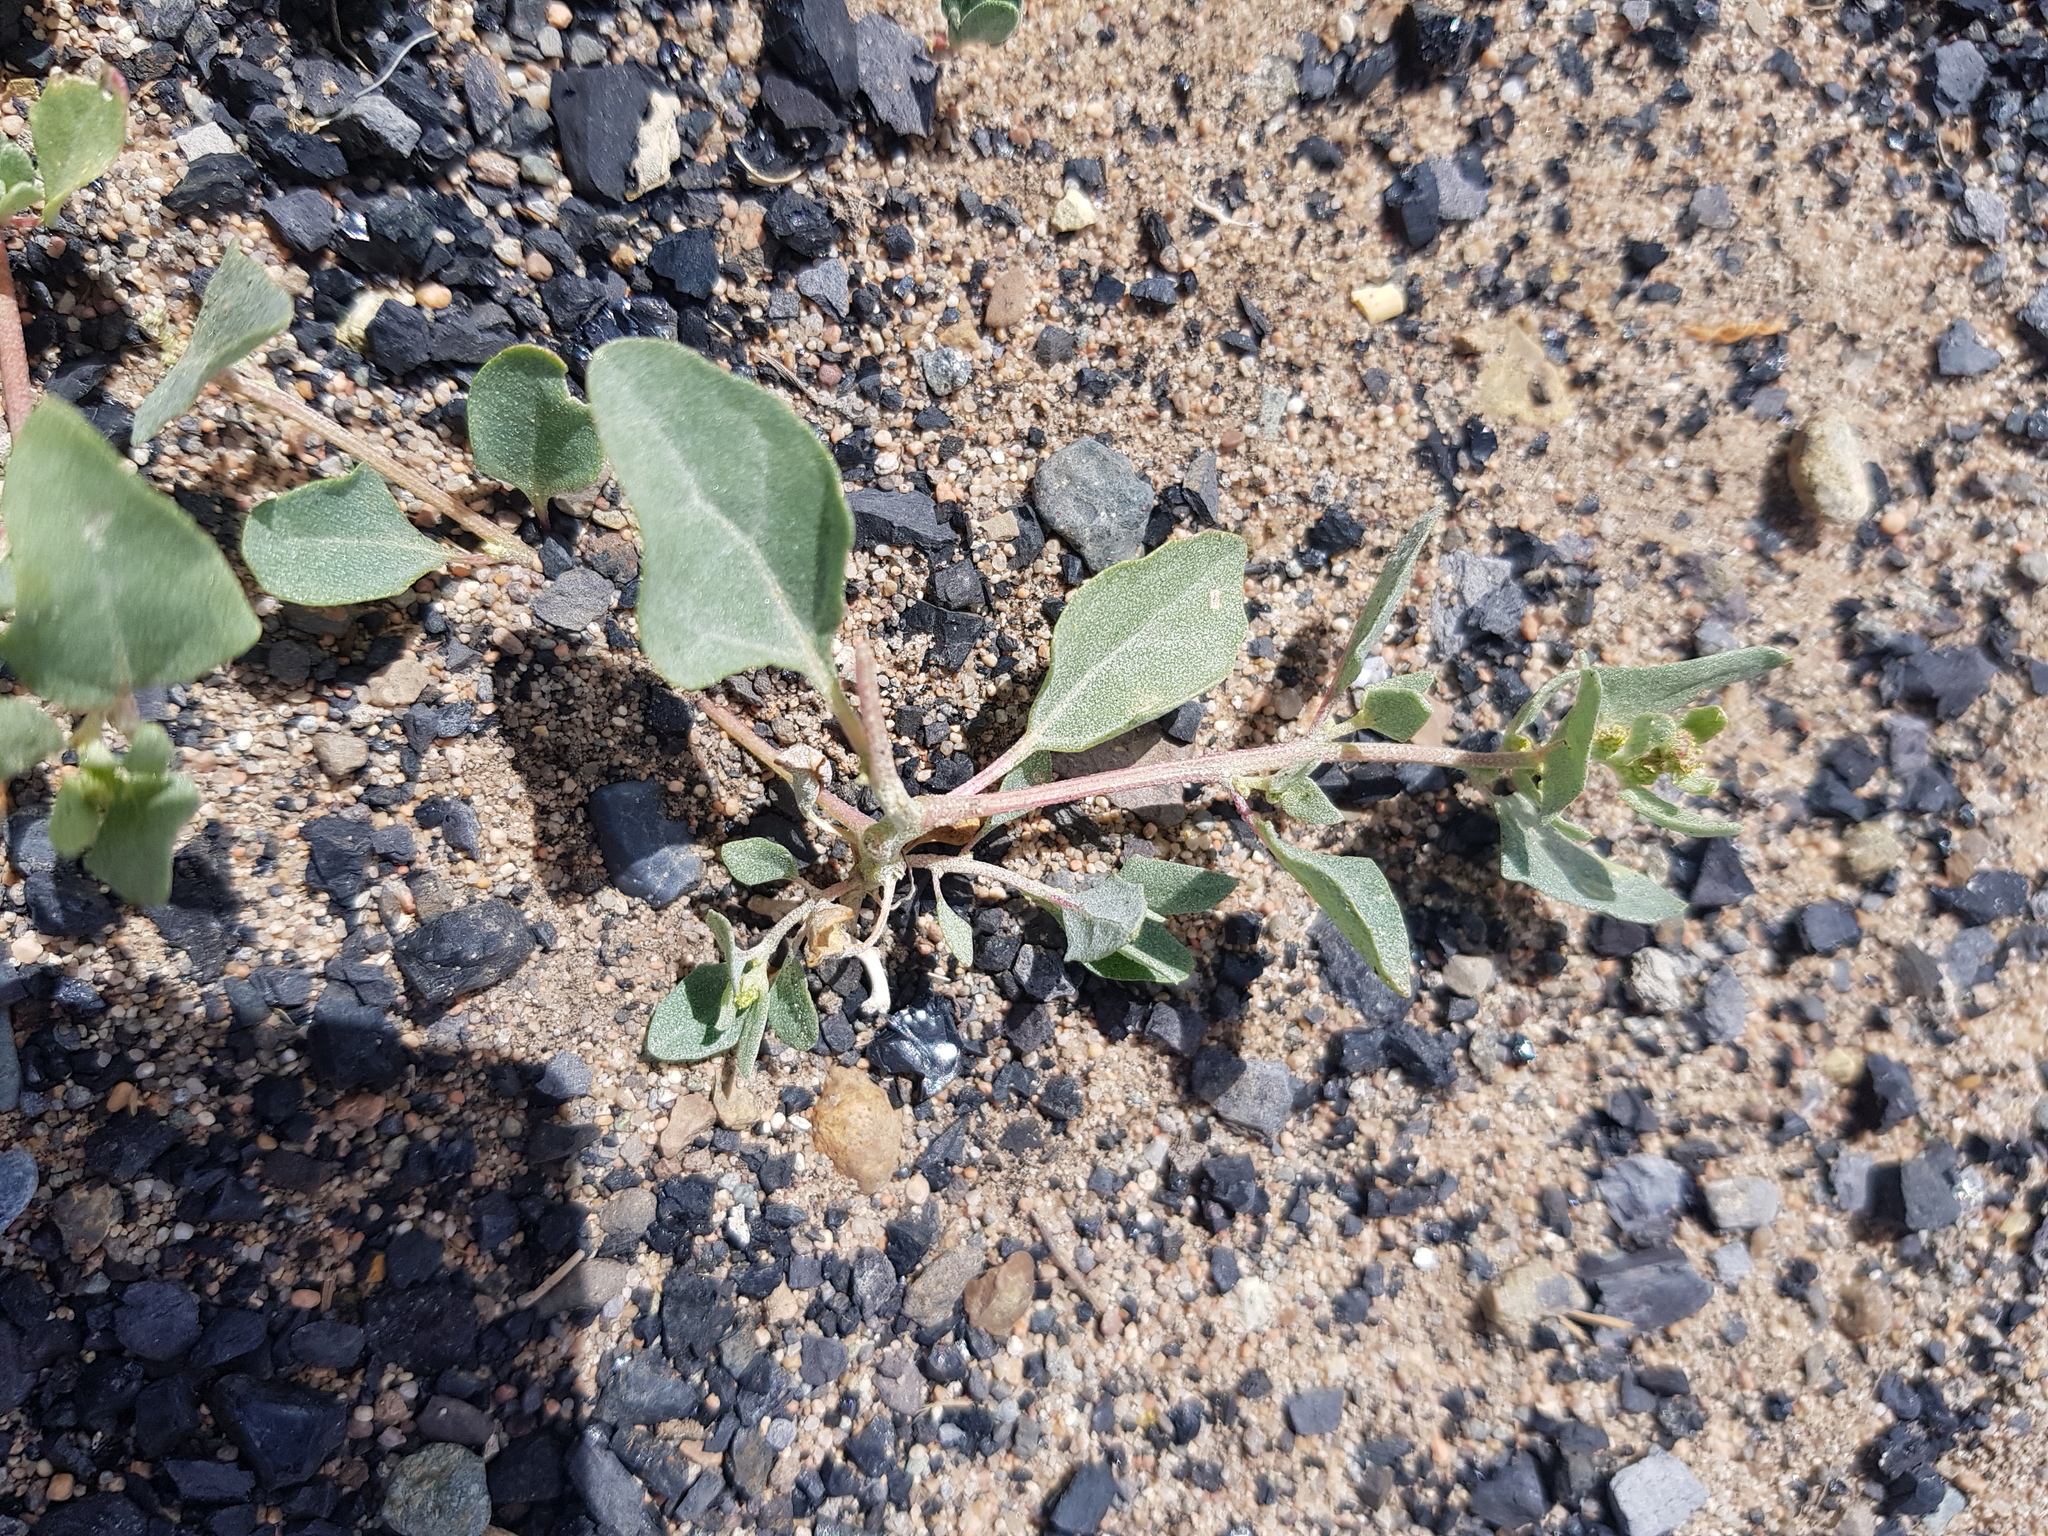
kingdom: Plantae
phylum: Tracheophyta
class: Magnoliopsida
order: Caryophyllales
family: Amaranthaceae
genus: Atriplex
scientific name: Atriplex sibirica
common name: Siberian saltbush
